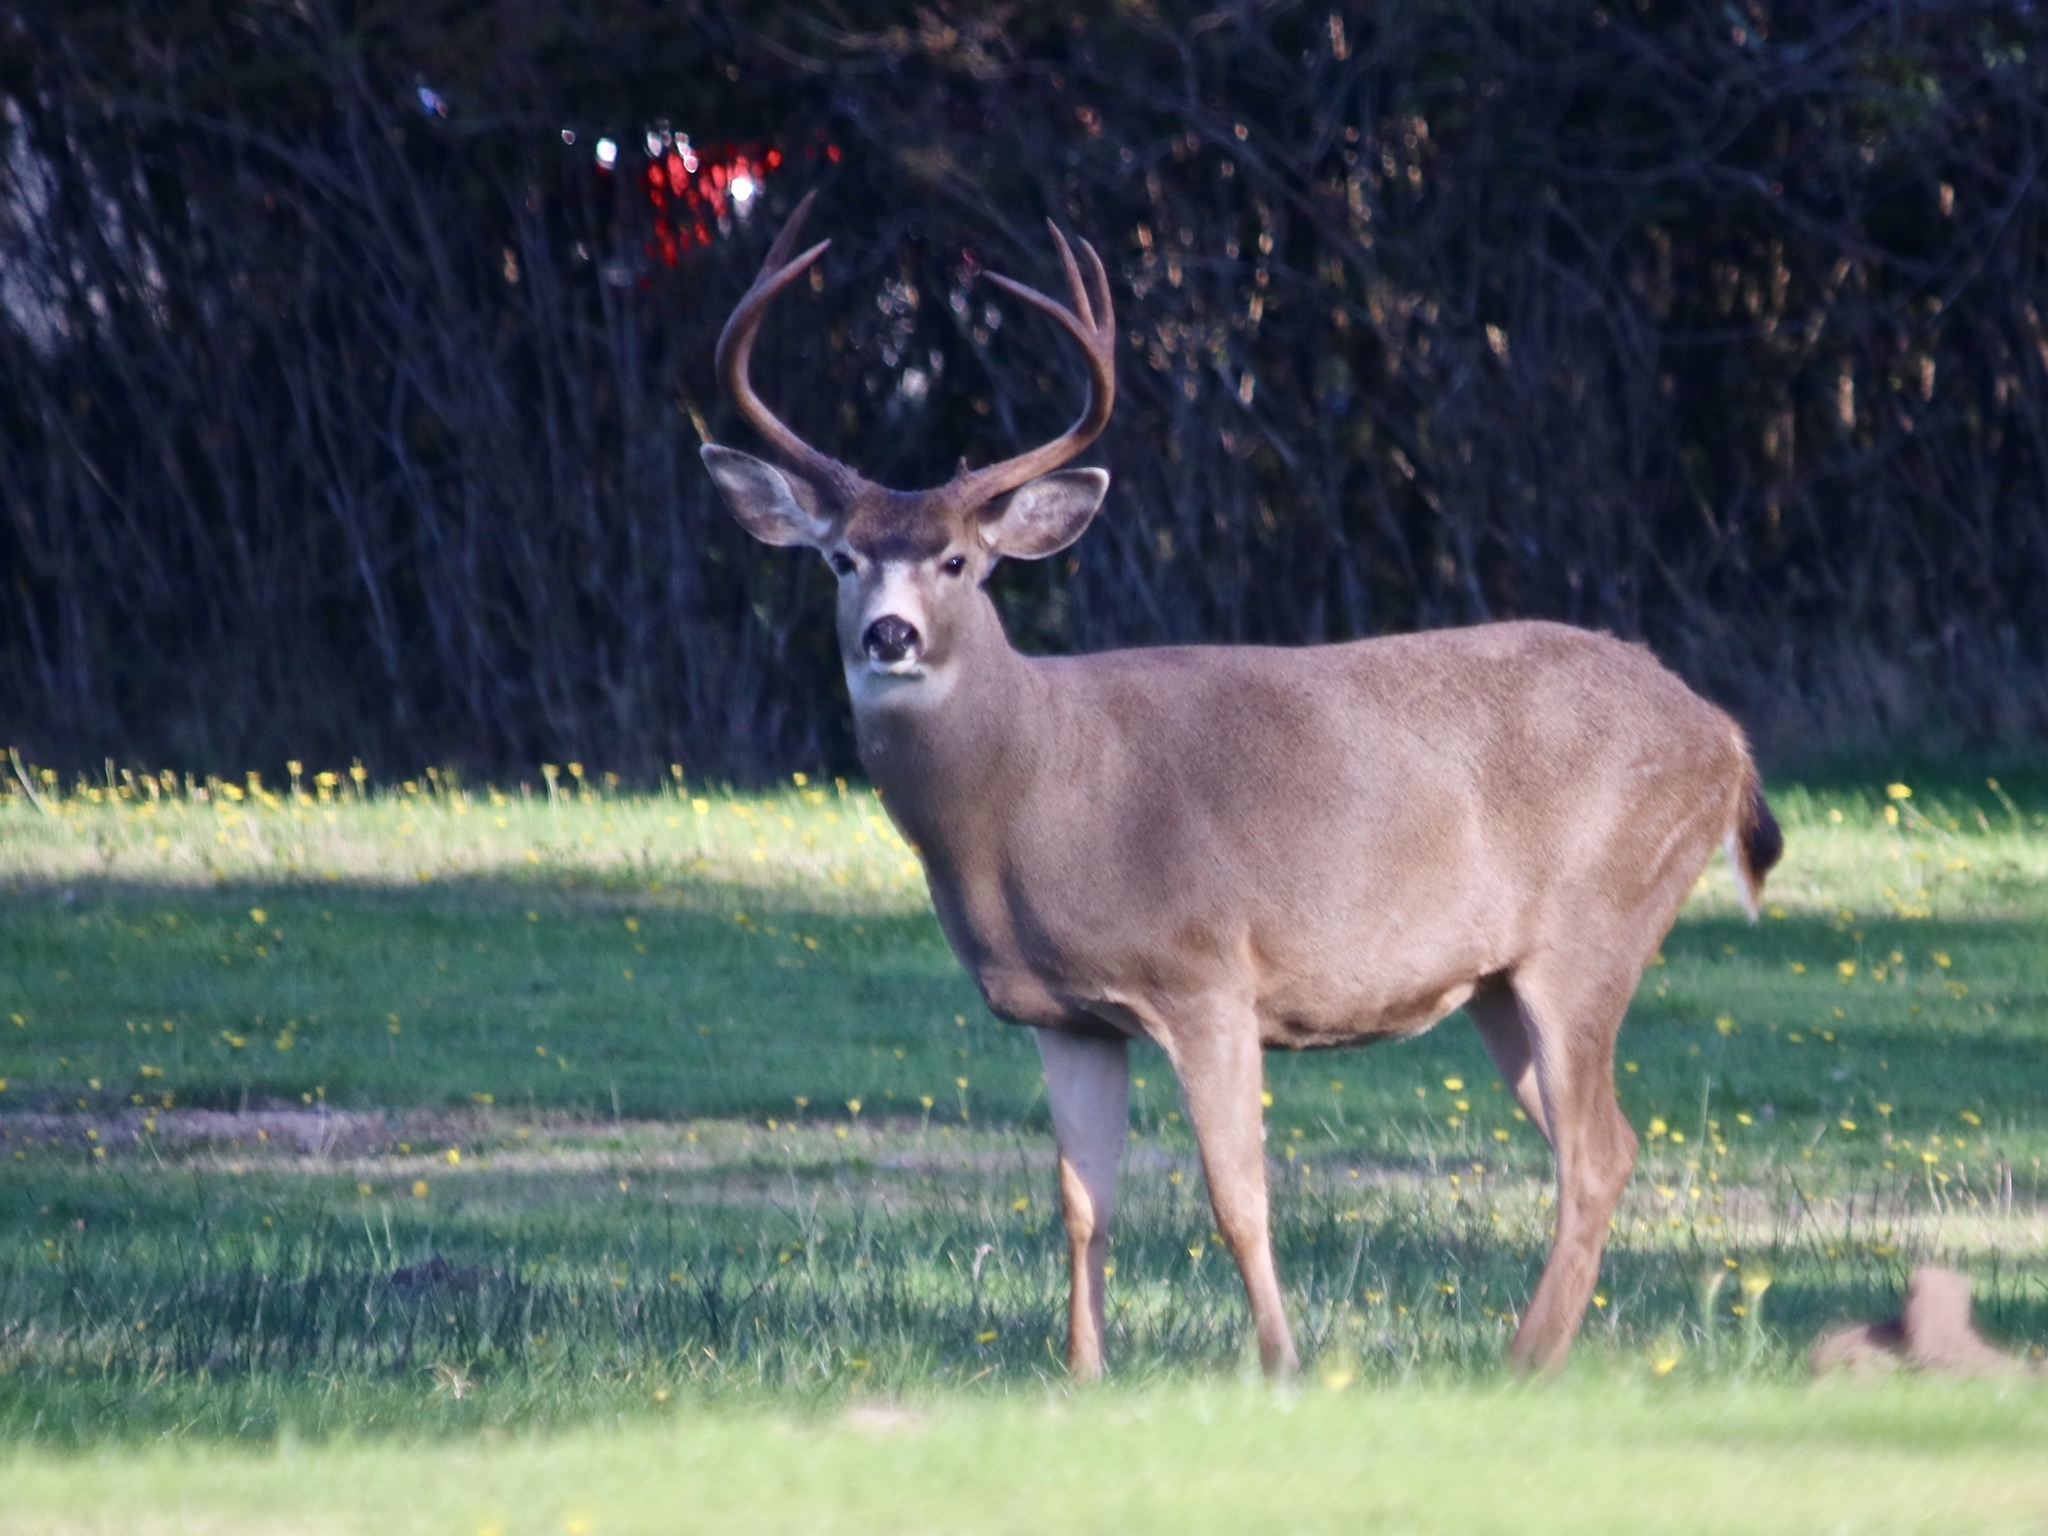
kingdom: Animalia
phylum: Chordata
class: Mammalia
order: Artiodactyla
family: Cervidae
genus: Odocoileus
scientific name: Odocoileus hemionus
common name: Mule deer
